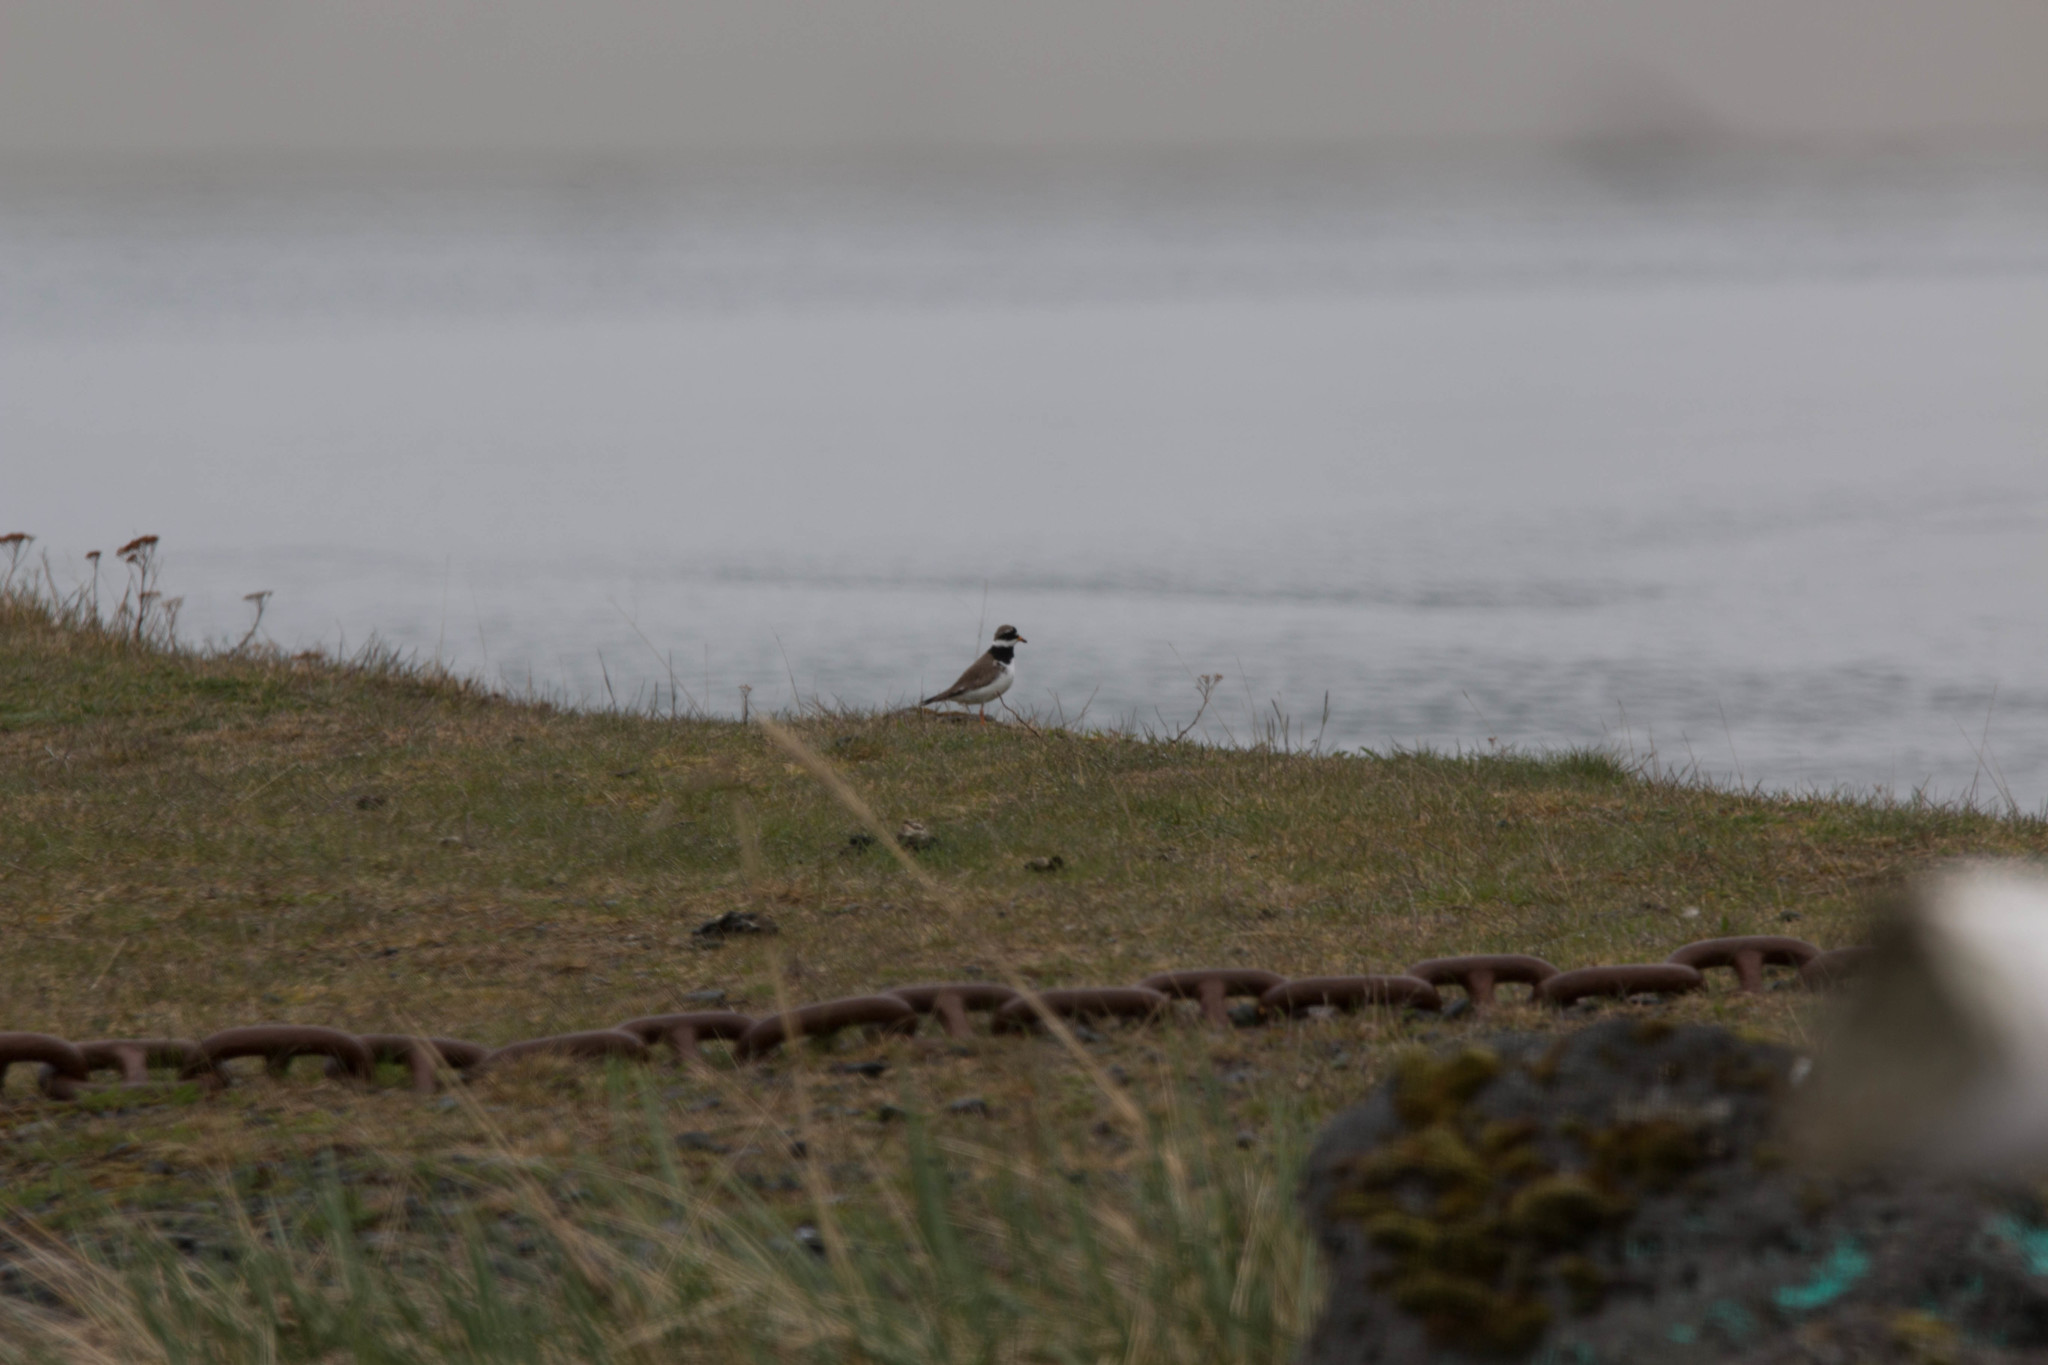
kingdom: Animalia
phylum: Chordata
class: Aves
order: Charadriiformes
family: Charadriidae
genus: Charadrius
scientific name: Charadrius hiaticula
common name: Common ringed plover
